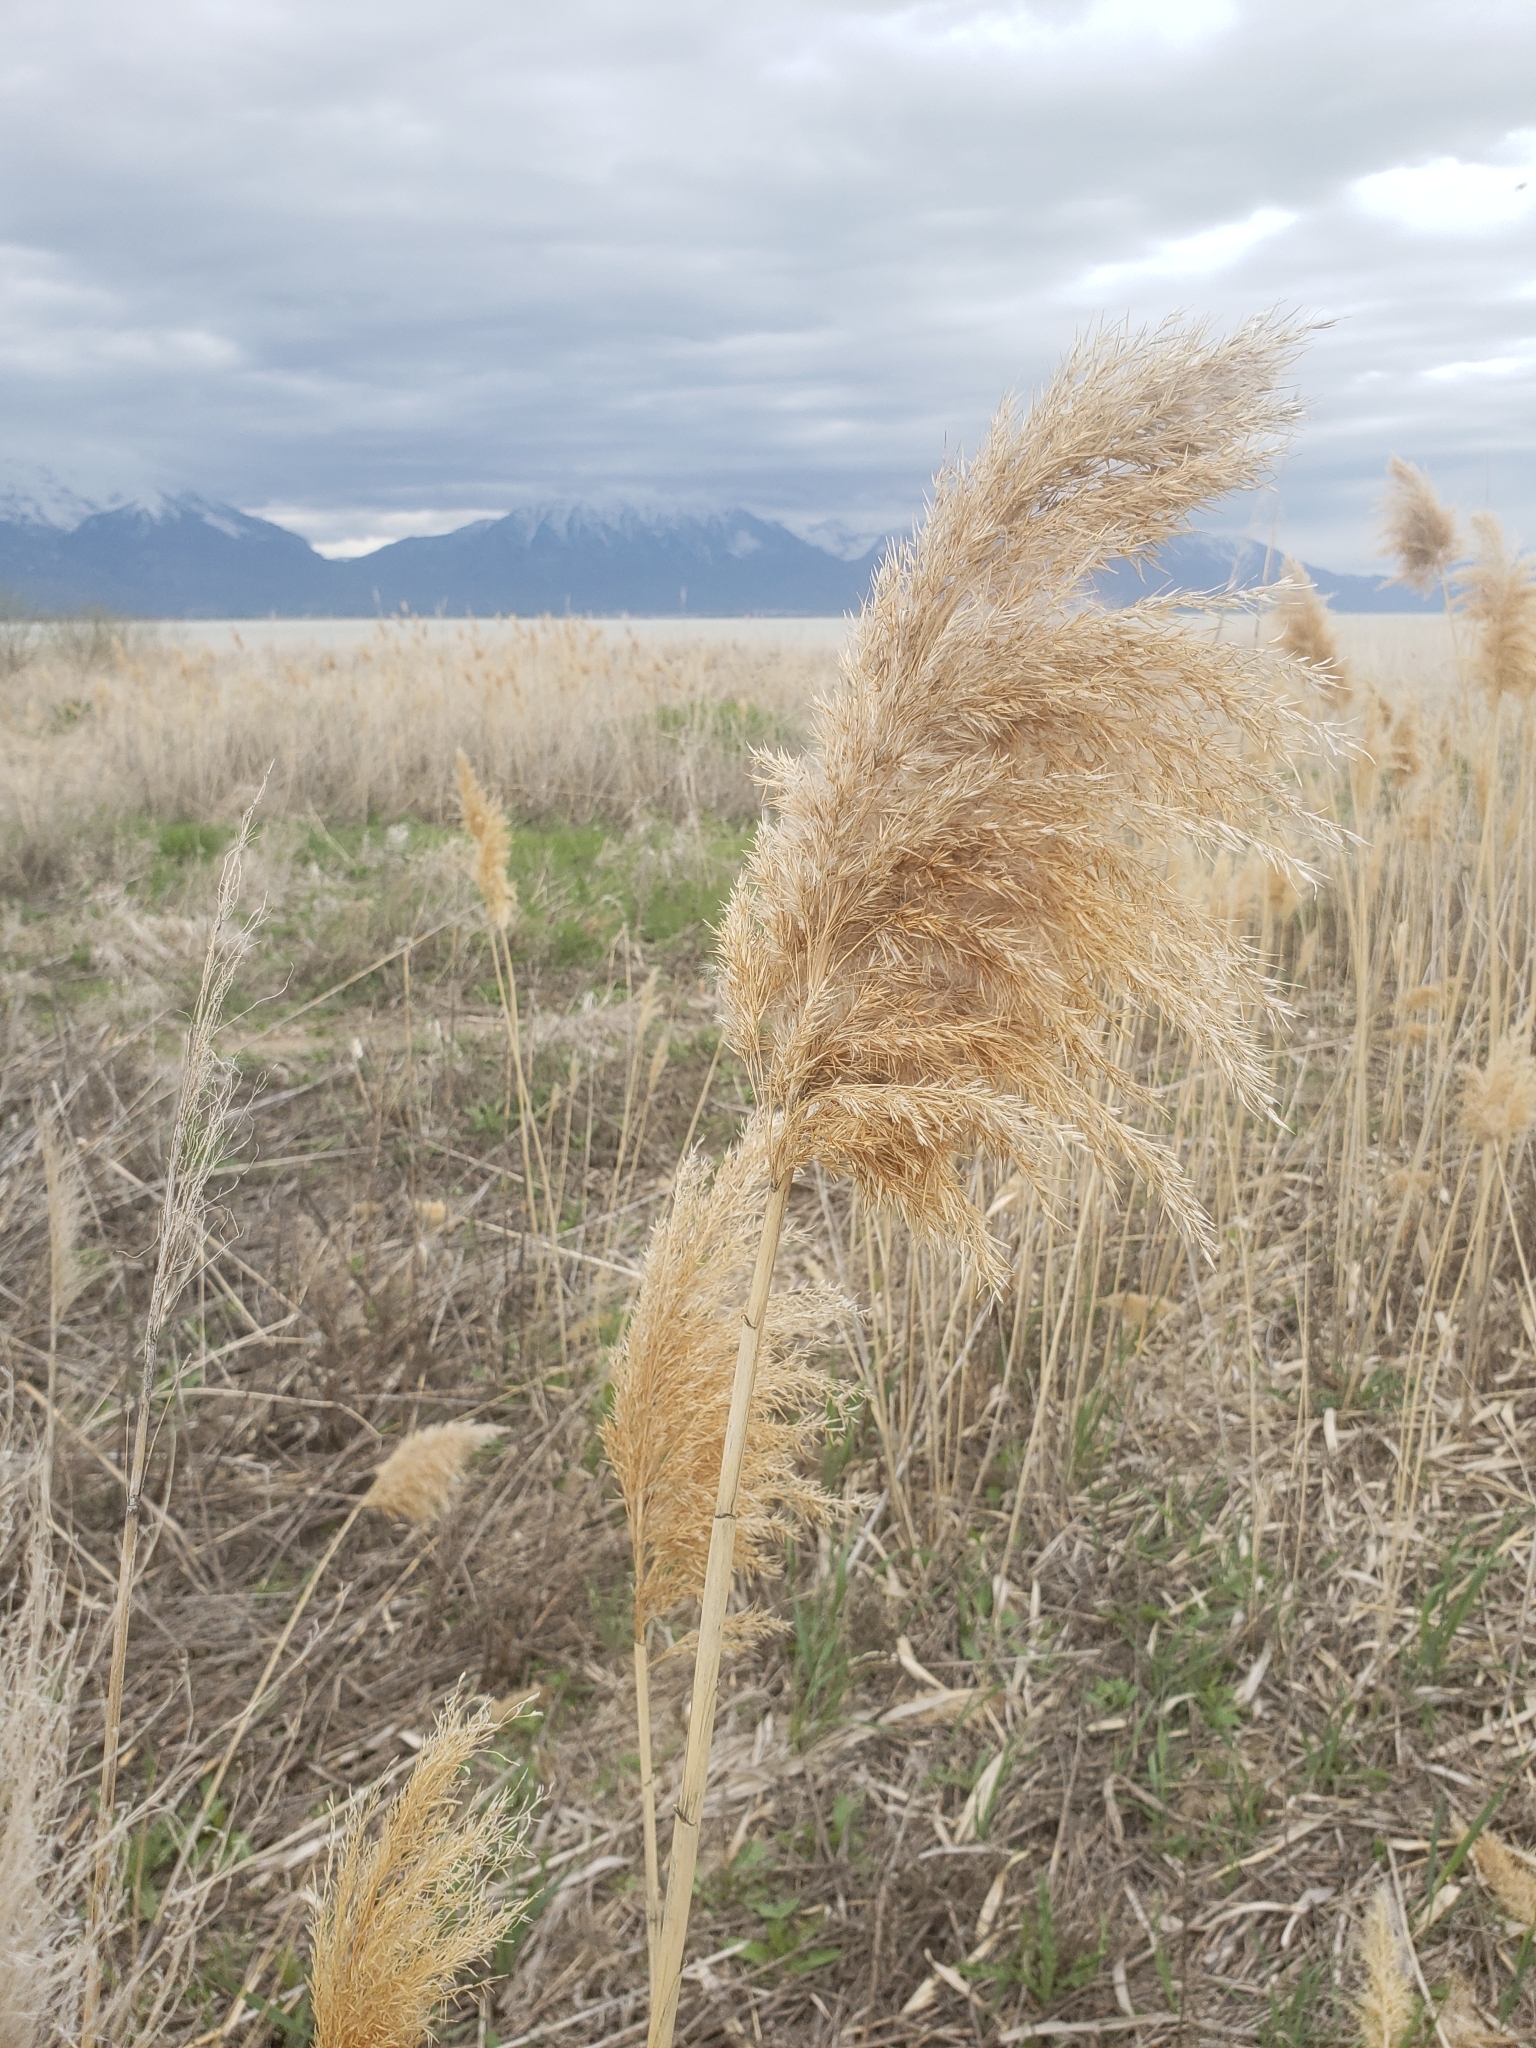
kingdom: Plantae
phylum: Tracheophyta
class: Liliopsida
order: Poales
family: Poaceae
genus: Phragmites
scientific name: Phragmites australis
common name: Common reed
